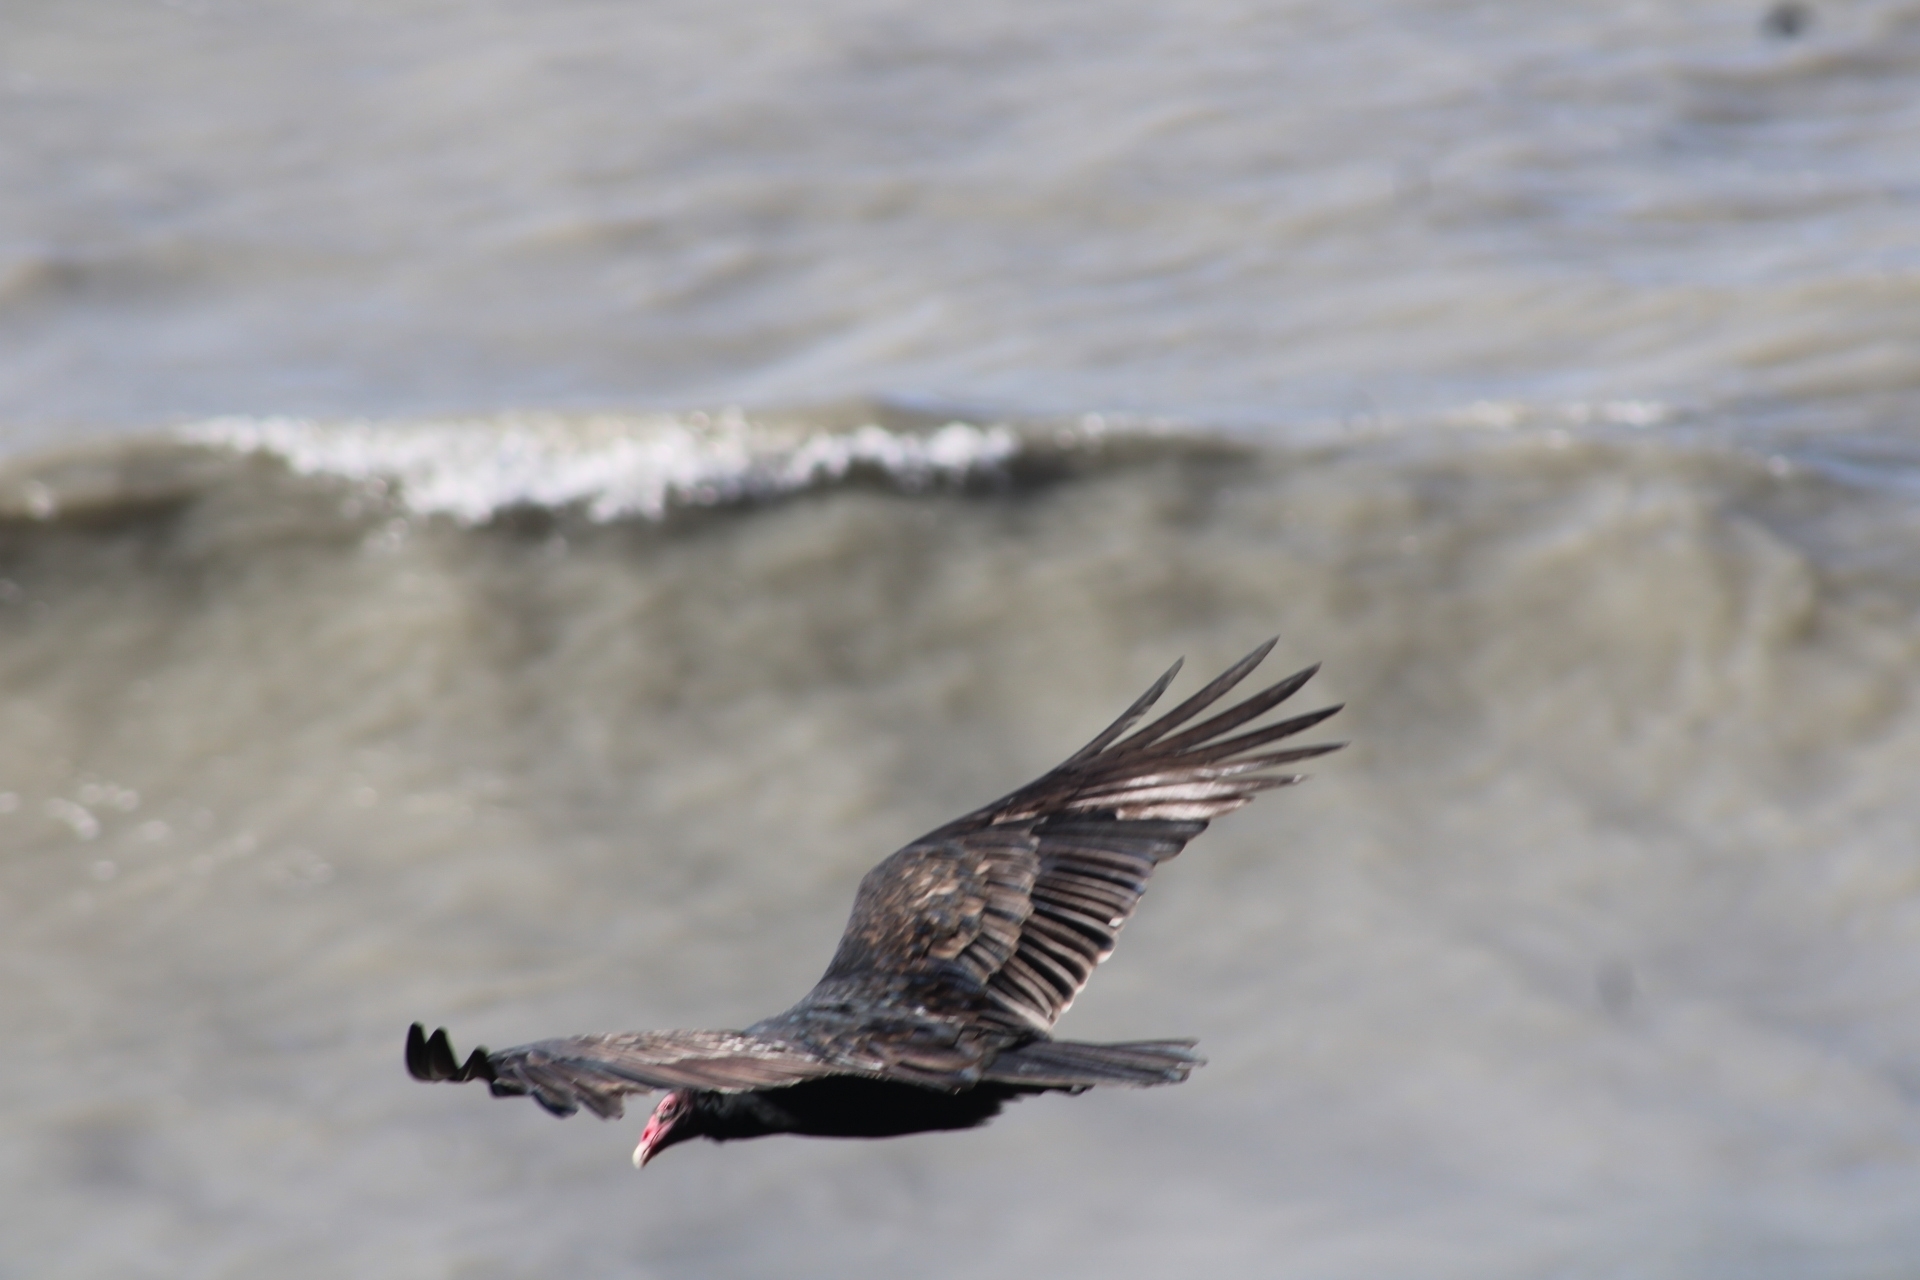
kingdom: Animalia
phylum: Chordata
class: Aves
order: Accipitriformes
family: Cathartidae
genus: Cathartes
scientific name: Cathartes aura
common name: Turkey vulture
